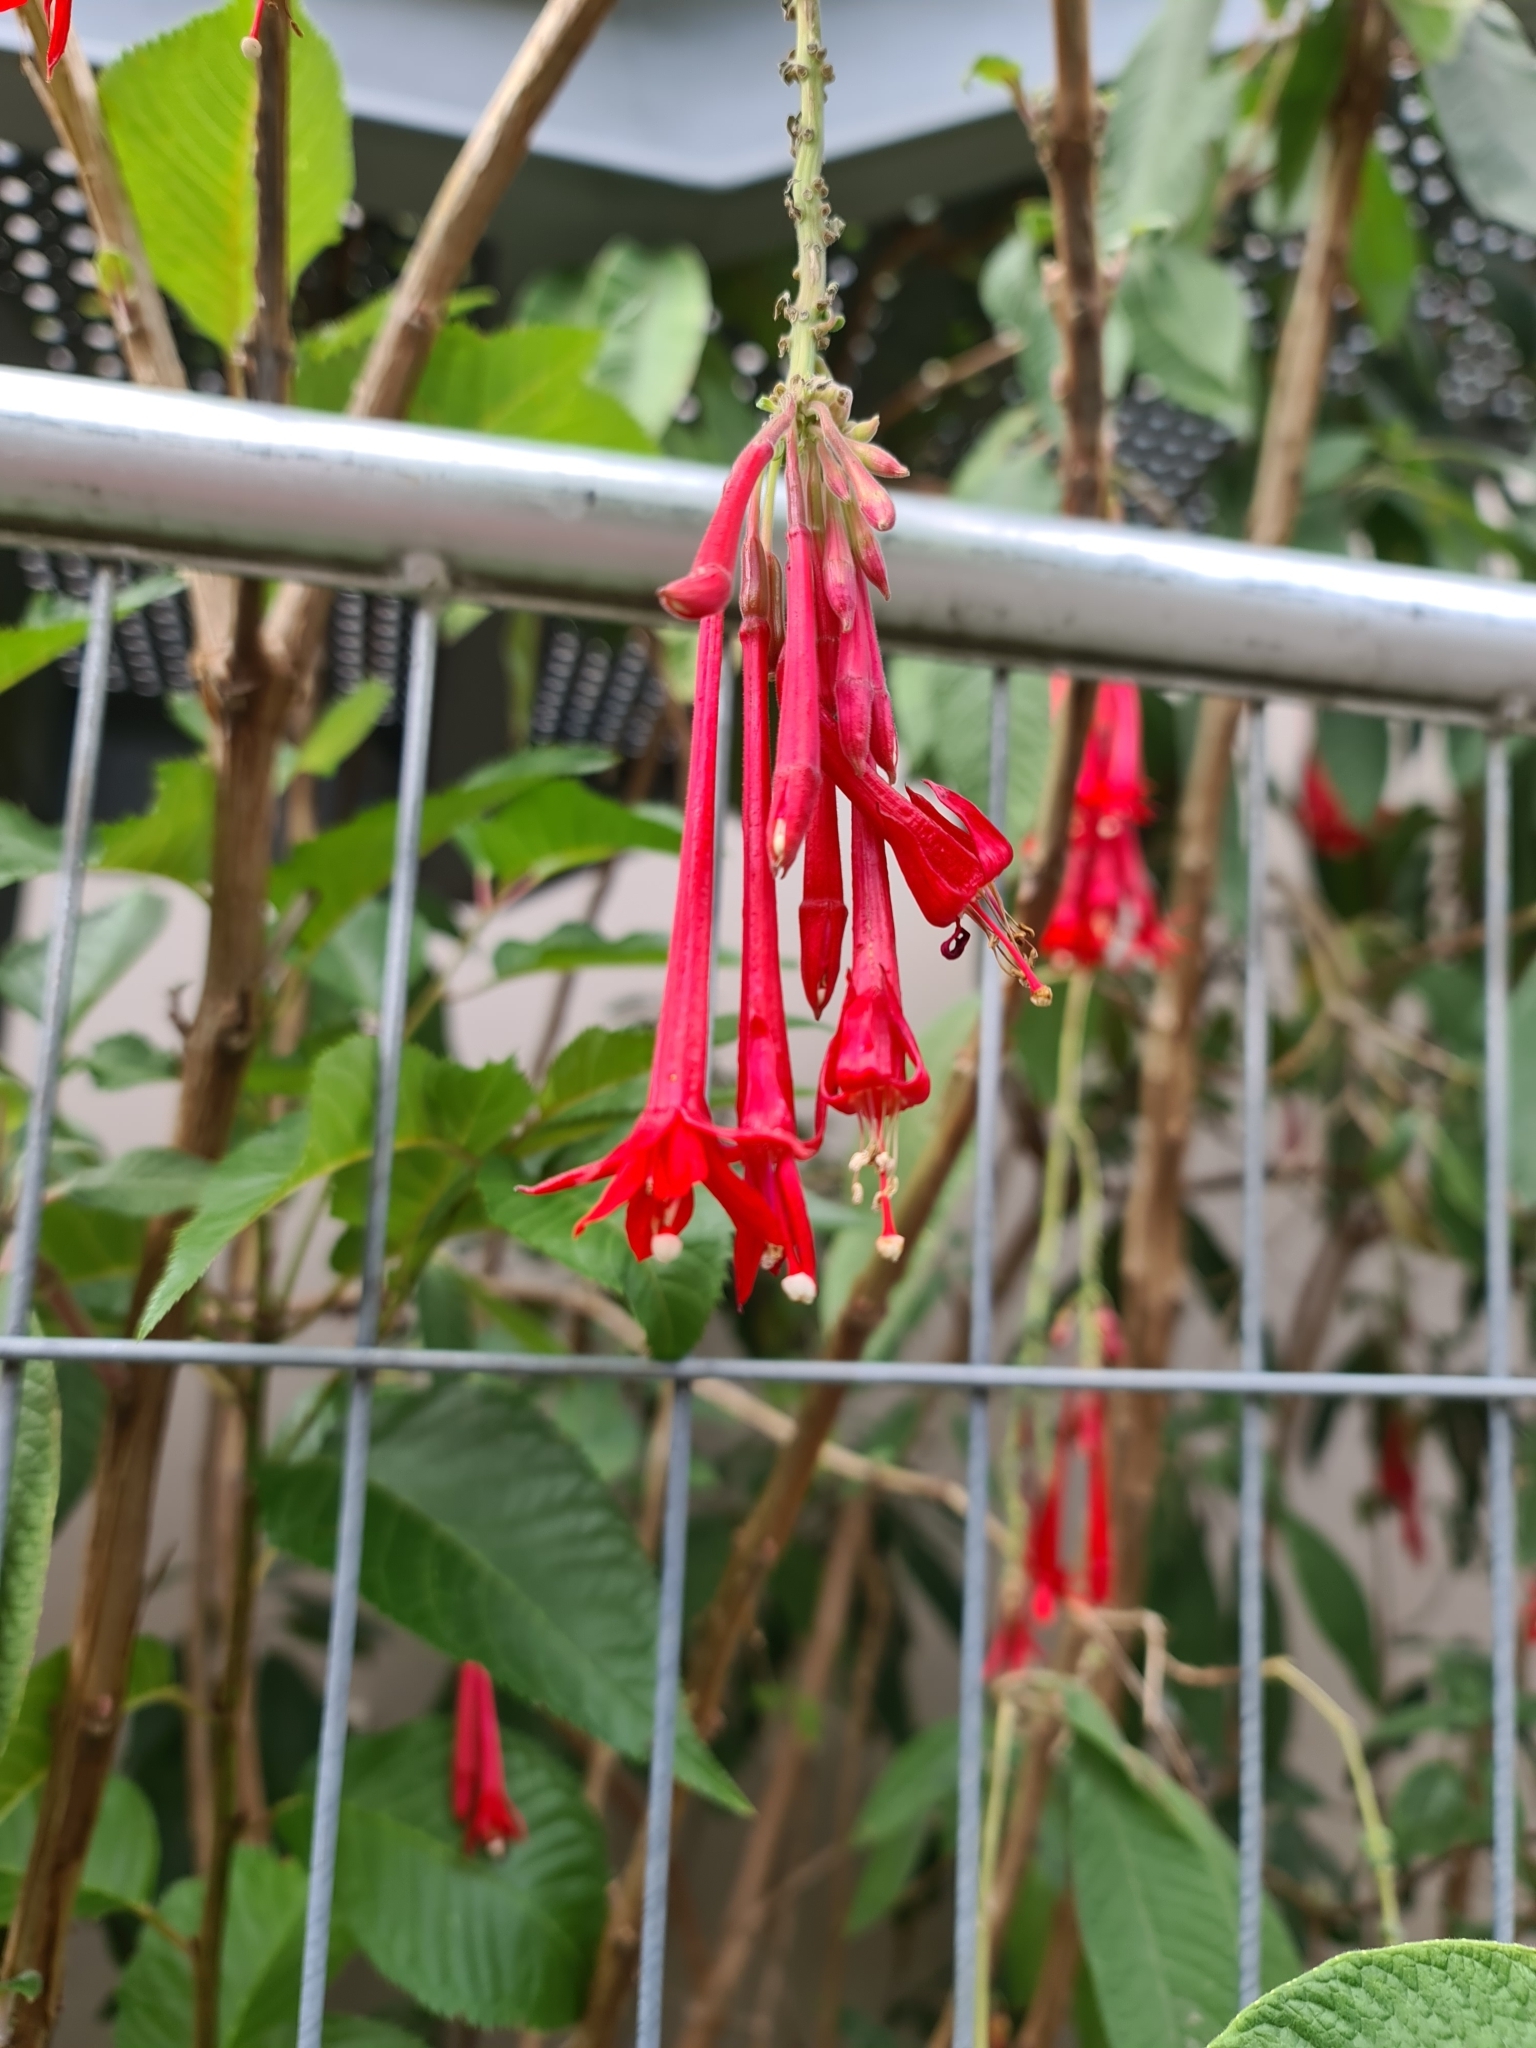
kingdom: Plantae
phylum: Tracheophyta
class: Magnoliopsida
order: Myrtales
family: Onagraceae
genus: Fuchsia
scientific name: Fuchsia boliviana
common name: Bolivian fuchsia
